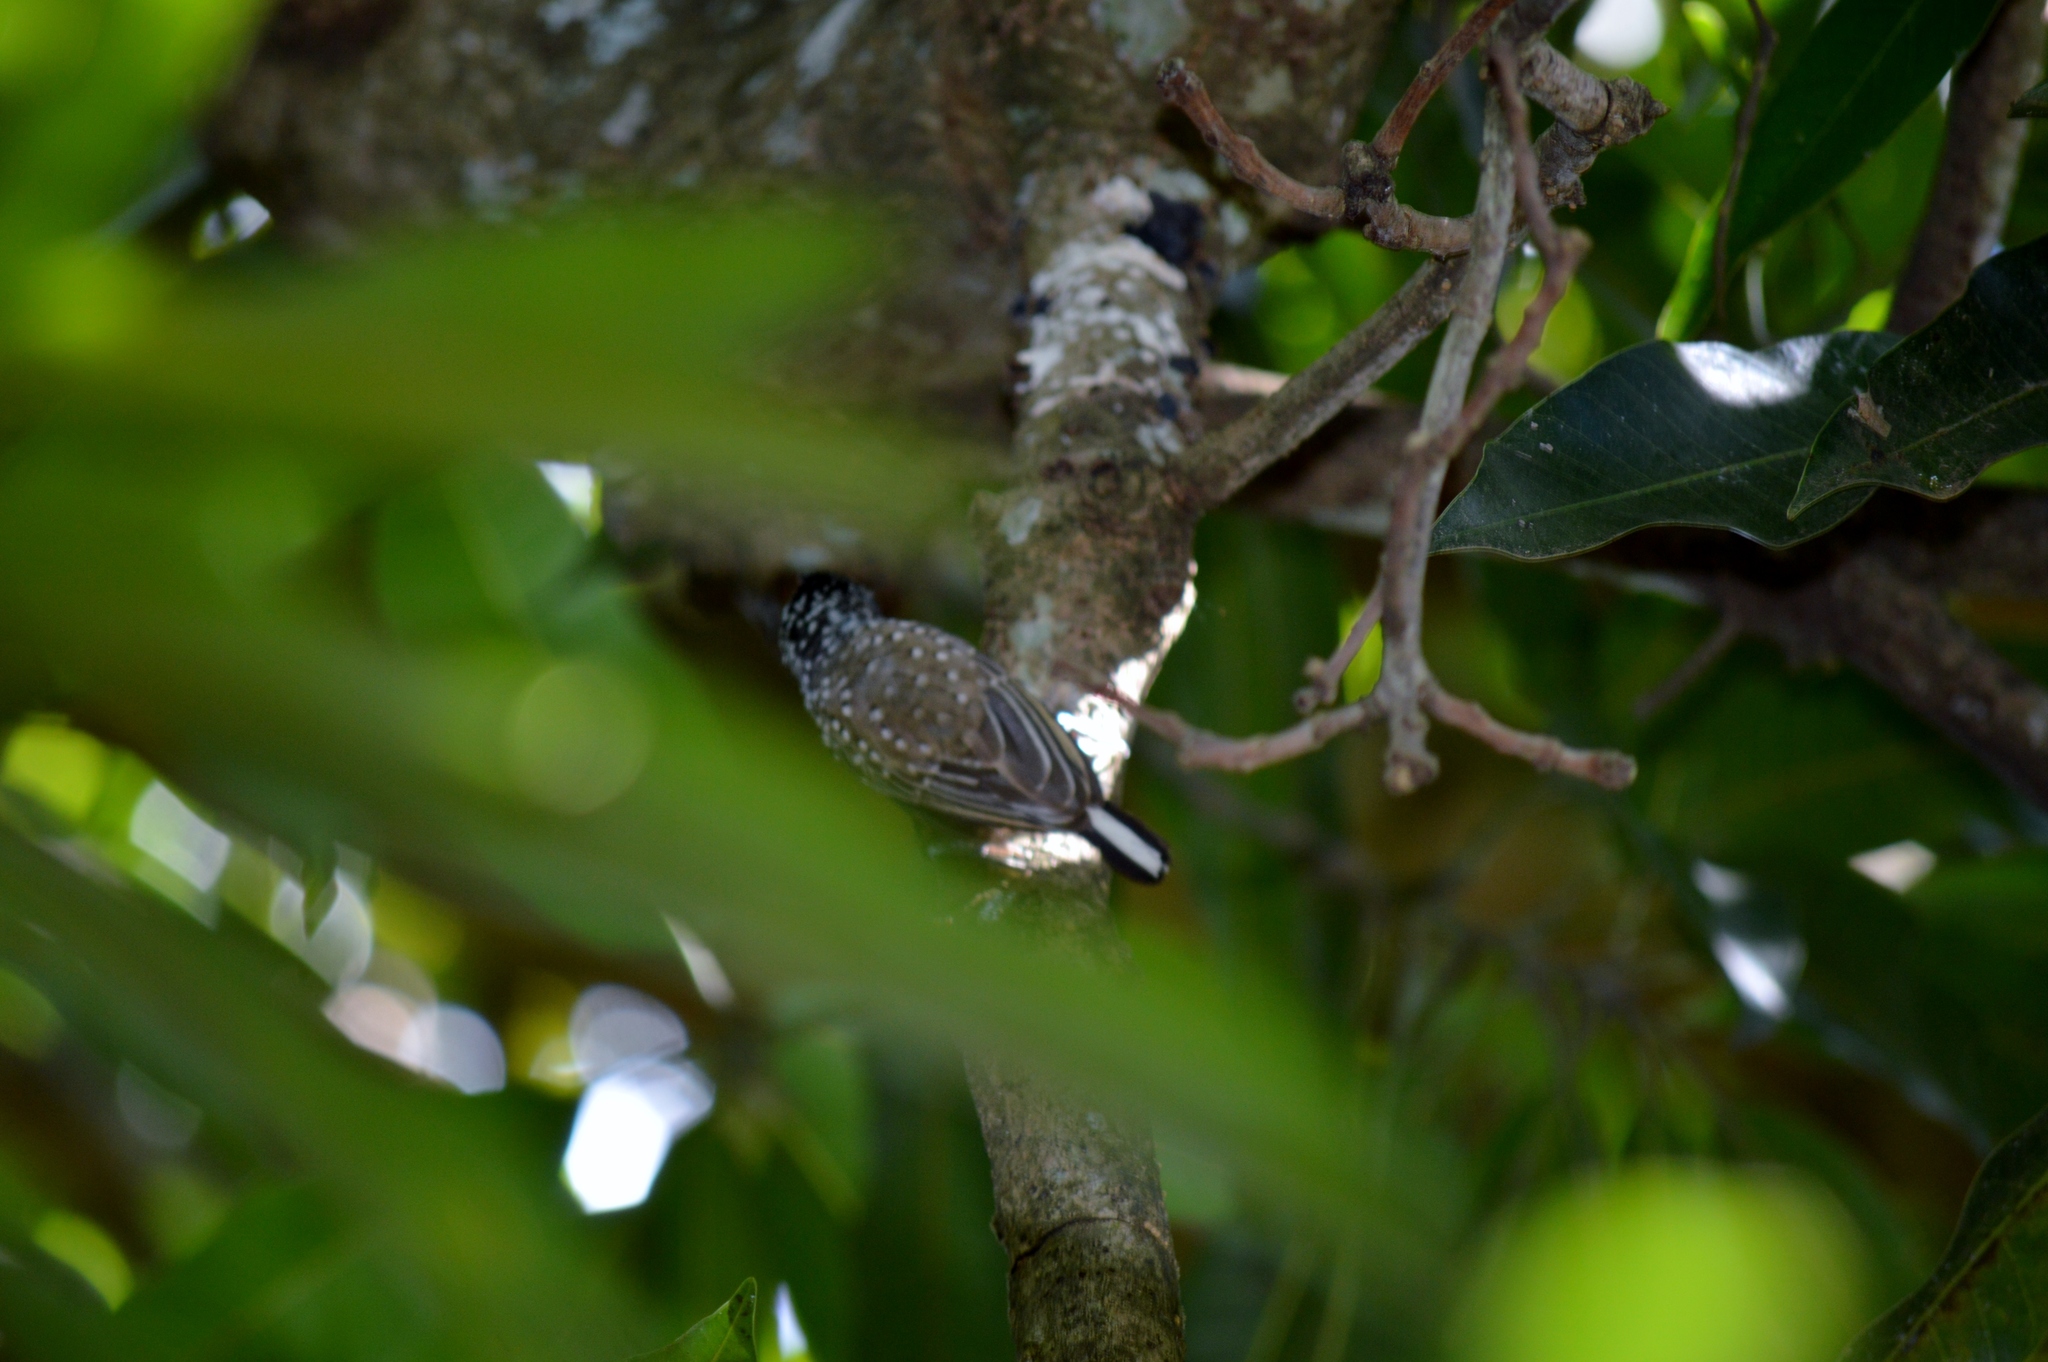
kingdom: Animalia
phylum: Chordata
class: Aves
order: Piciformes
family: Picidae
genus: Picumnus
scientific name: Picumnus albosquamatus
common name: White-wedged piculet
